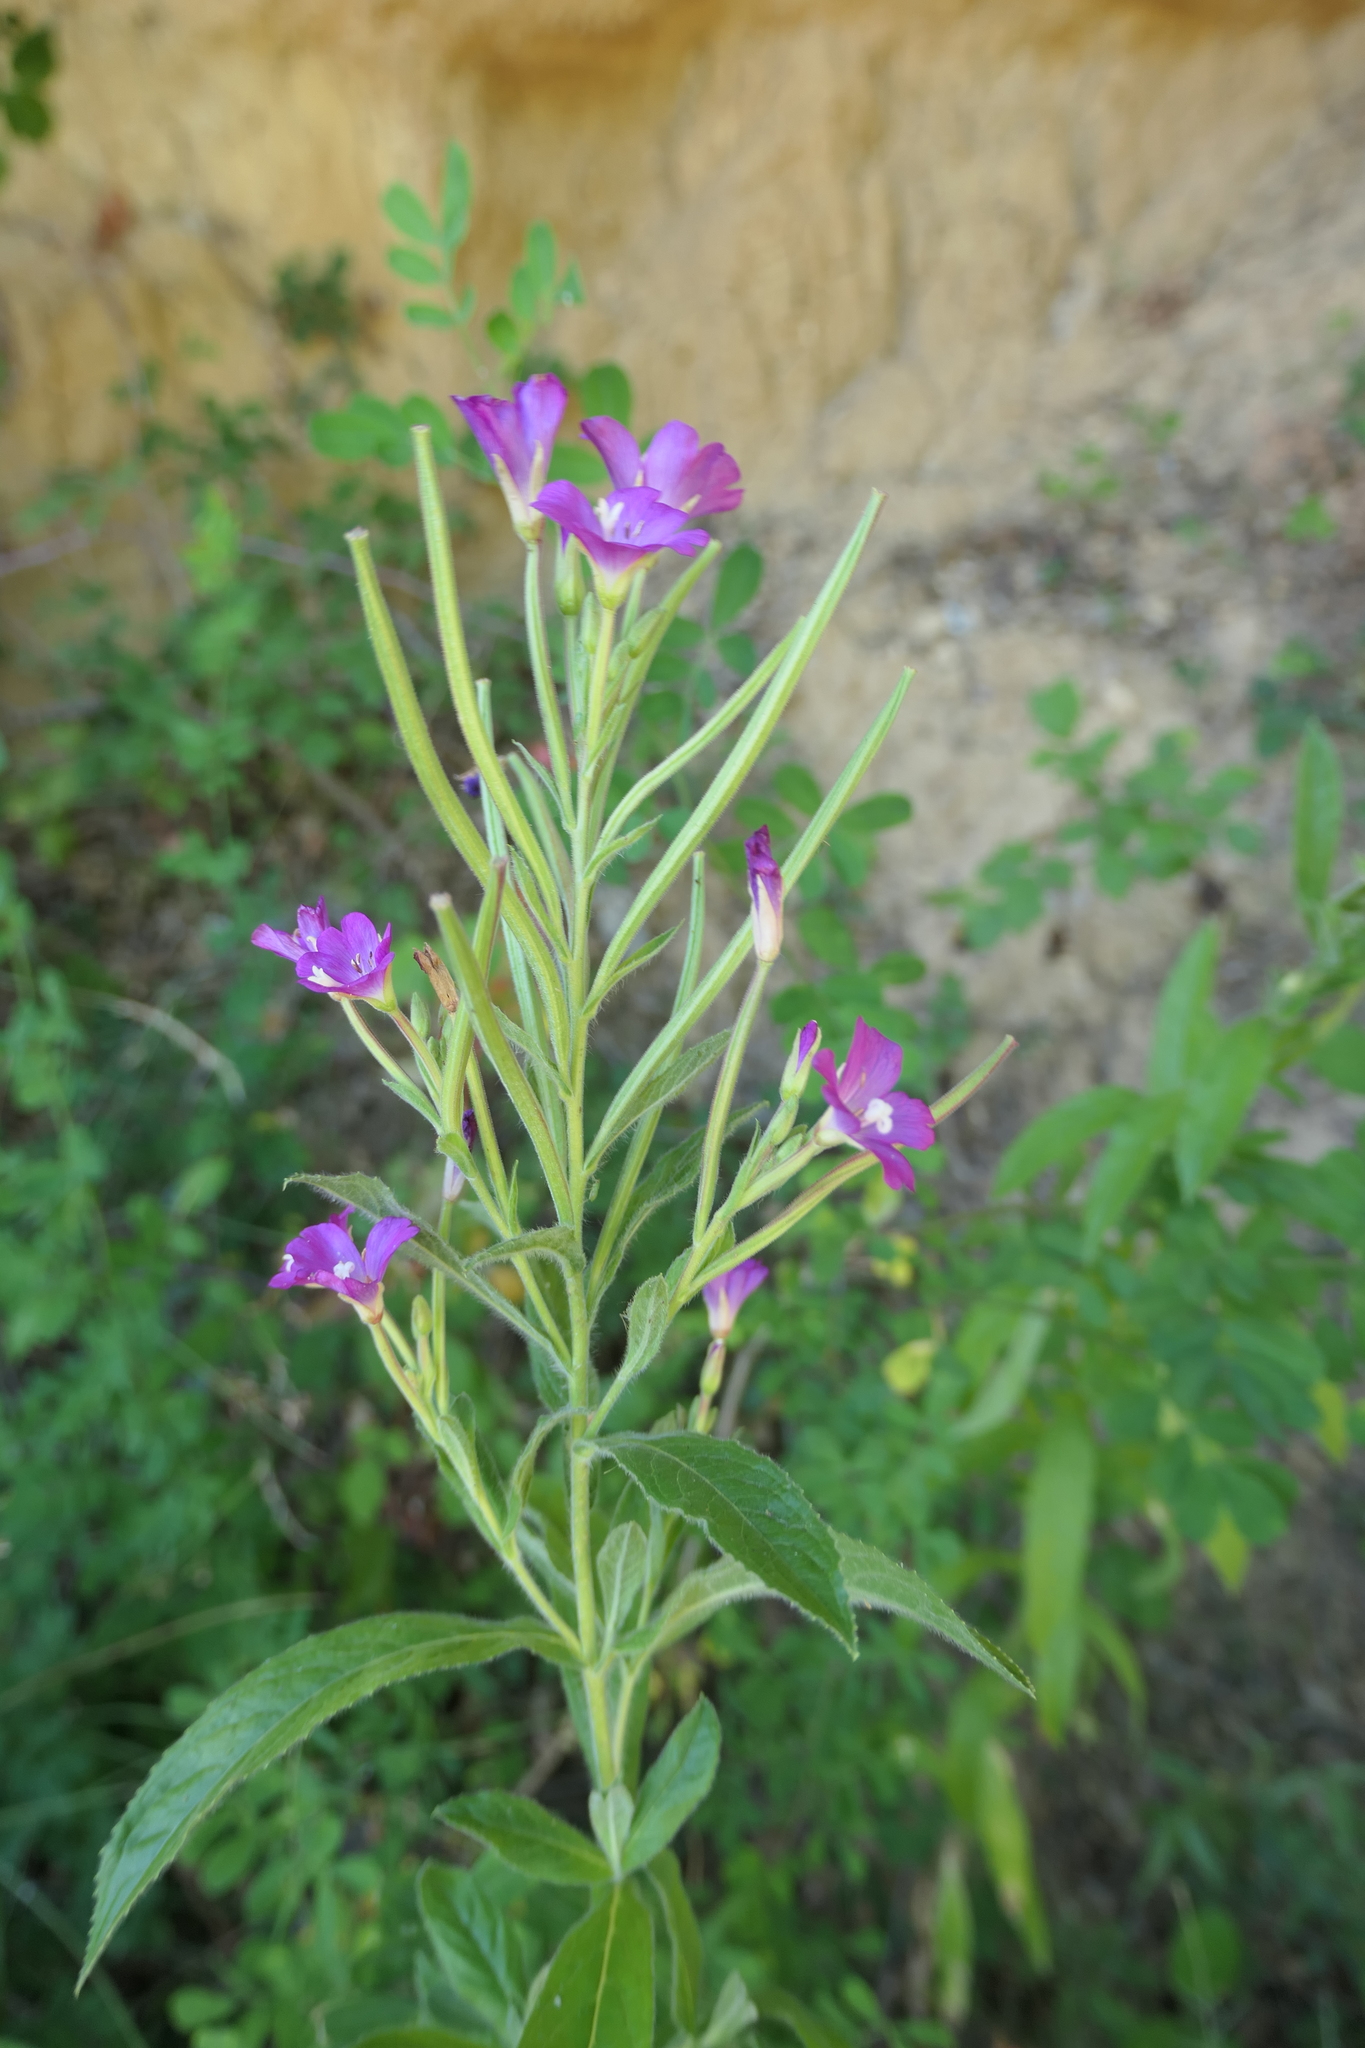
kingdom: Plantae
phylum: Tracheophyta
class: Magnoliopsida
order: Myrtales
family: Onagraceae
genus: Epilobium
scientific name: Epilobium hirsutum
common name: Great willowherb
